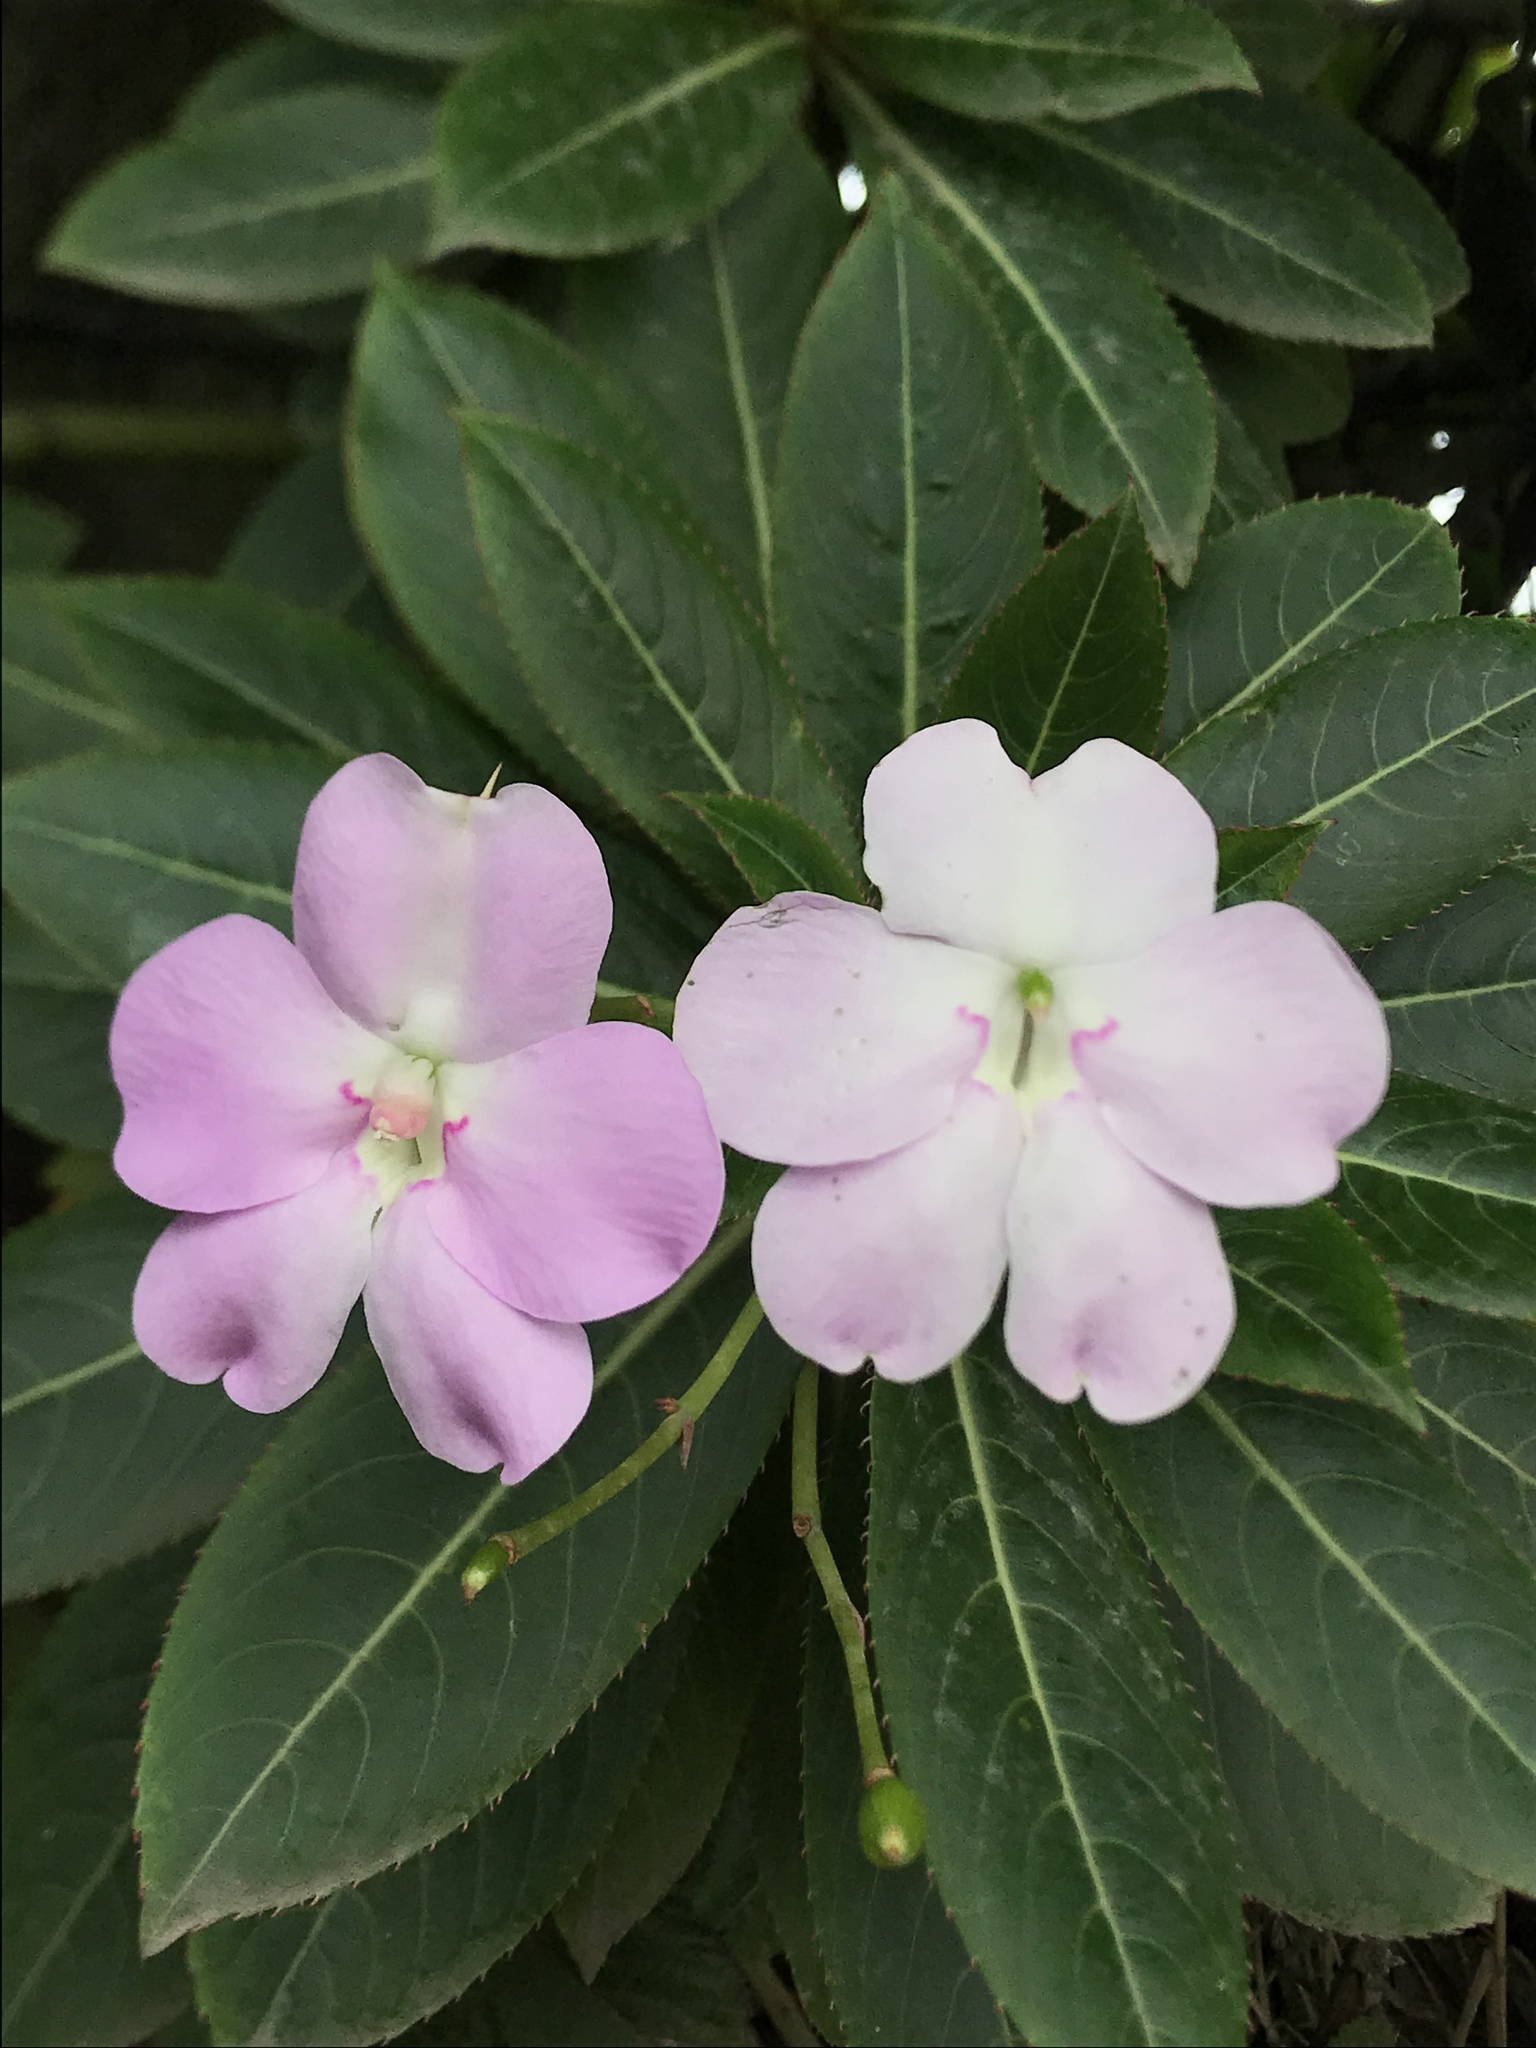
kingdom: Plantae
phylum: Tracheophyta
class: Magnoliopsida
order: Ericales
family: Balsaminaceae
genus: Impatiens
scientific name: Impatiens sodenii
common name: Oliver's touch-me-not
